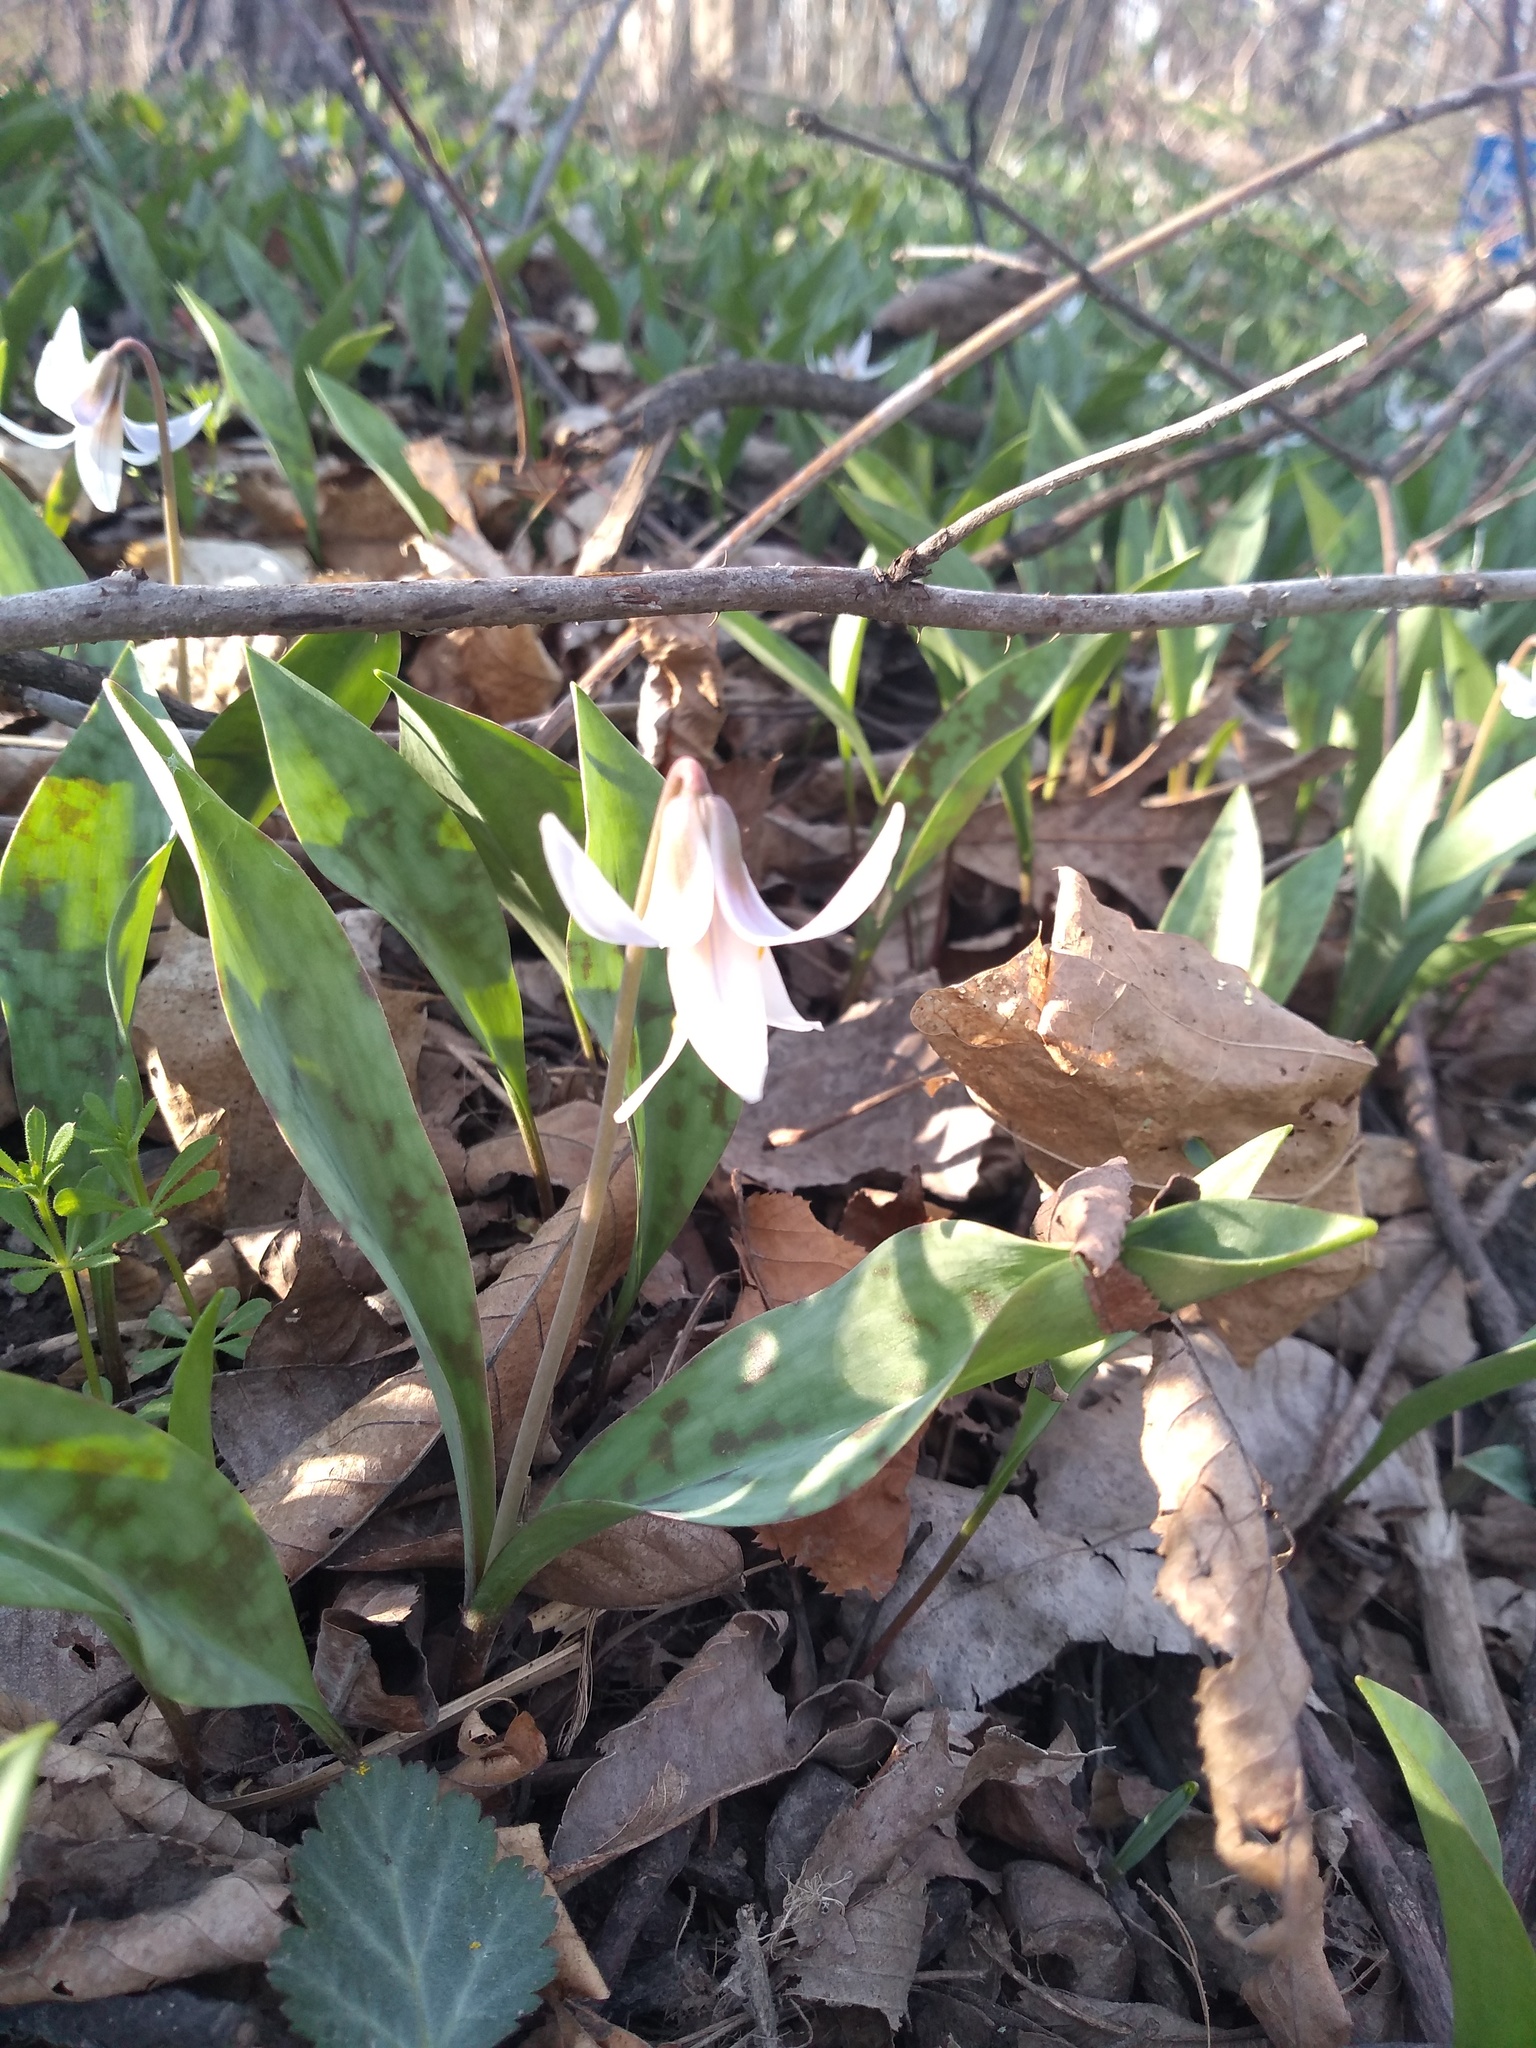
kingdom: Plantae
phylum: Tracheophyta
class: Liliopsida
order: Liliales
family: Liliaceae
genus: Erythronium
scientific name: Erythronium albidum
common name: White trout-lily
